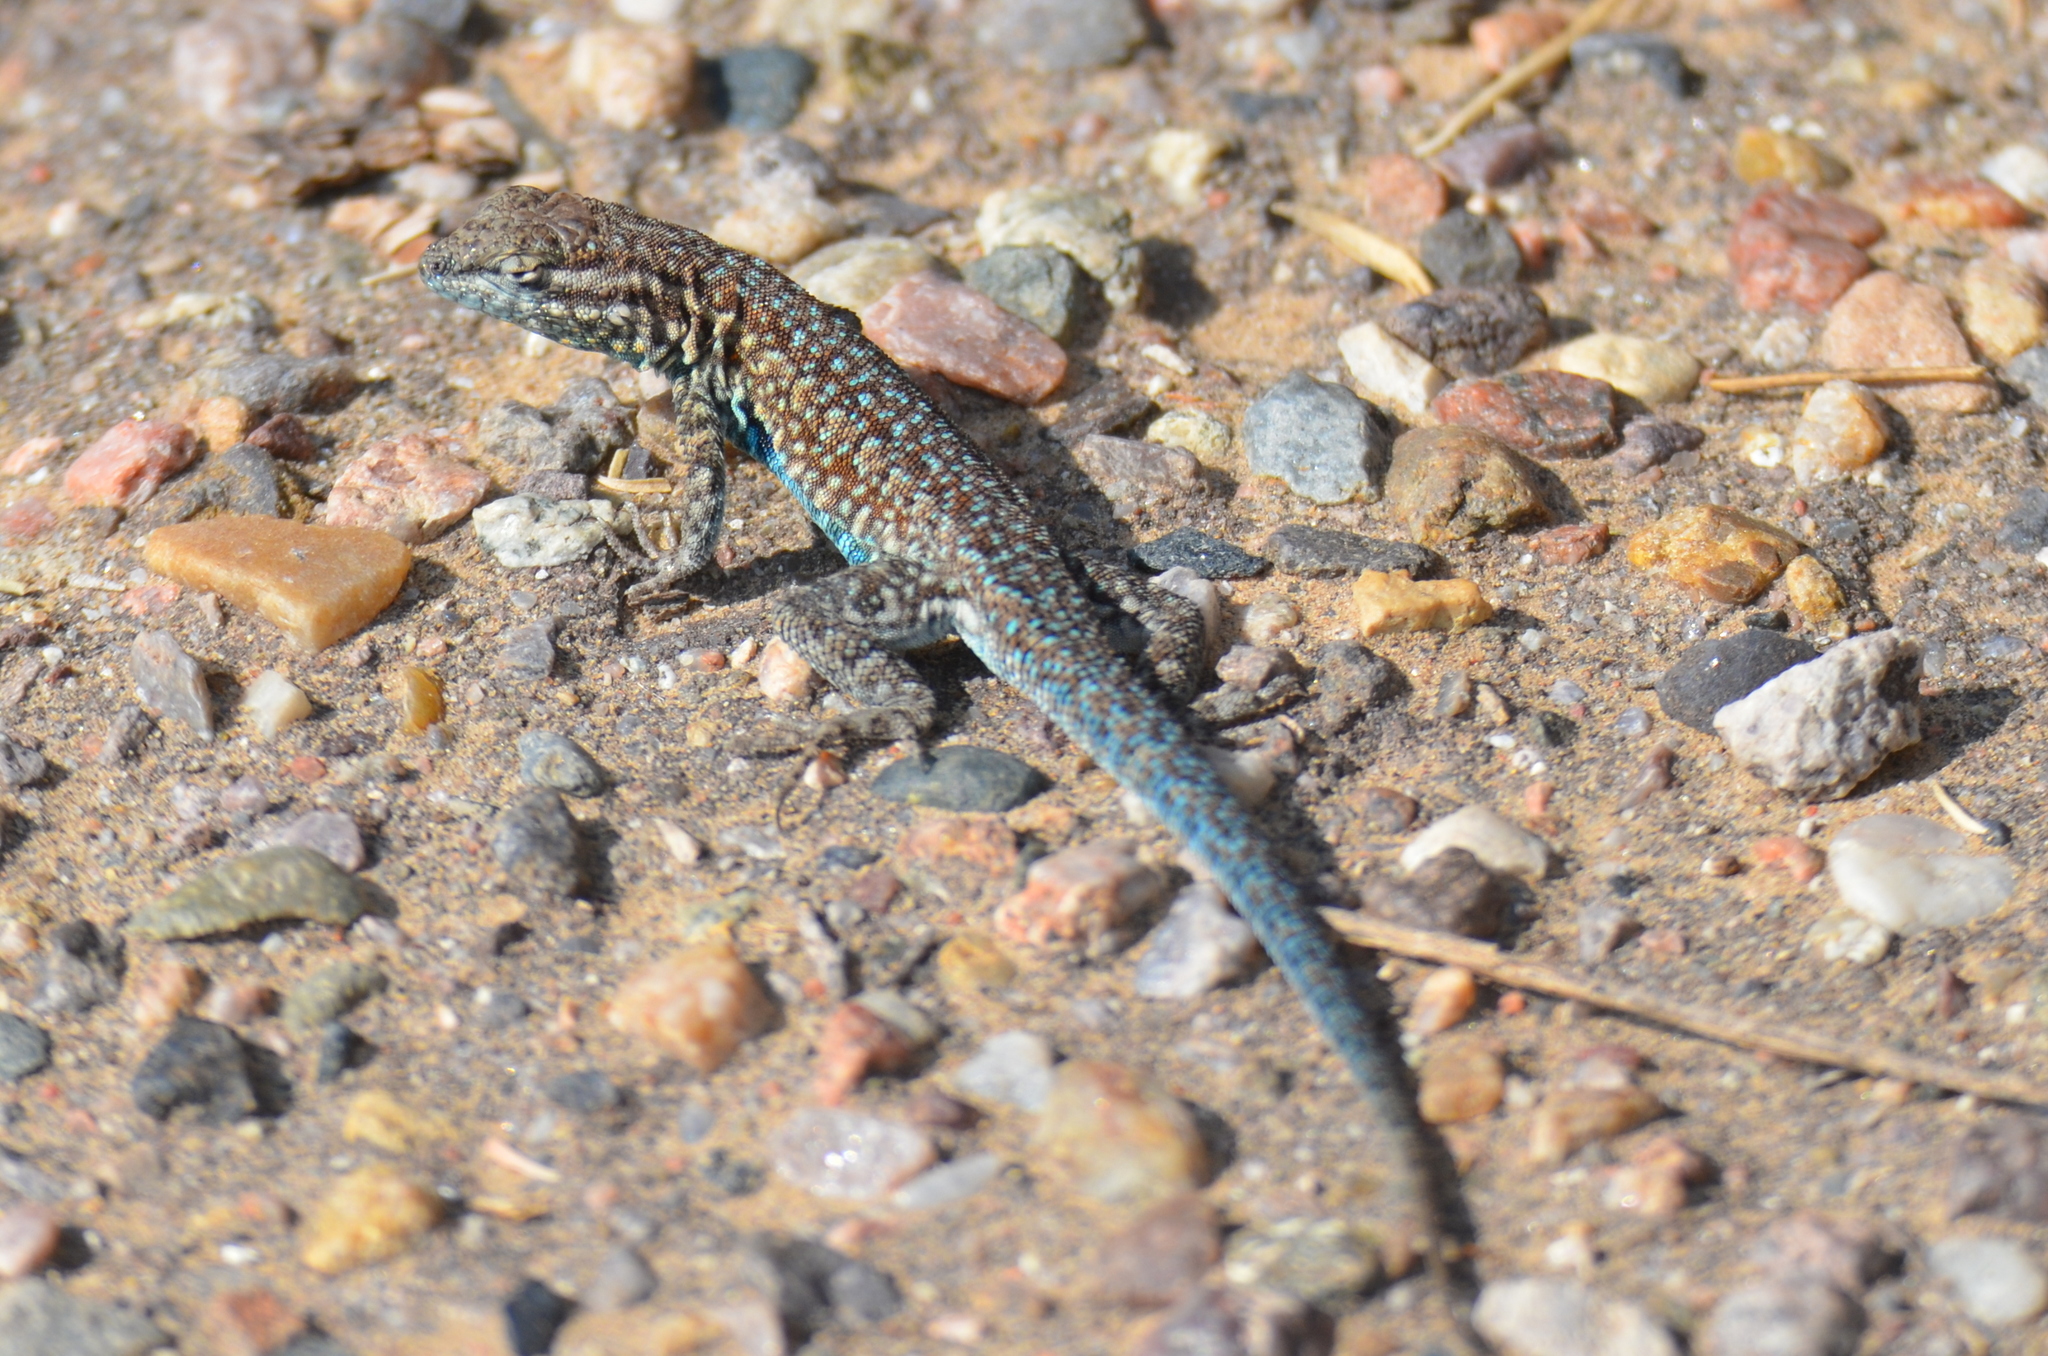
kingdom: Animalia
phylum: Chordata
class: Squamata
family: Phrynosomatidae
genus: Uta
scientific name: Uta stansburiana
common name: Side-blotched lizard
